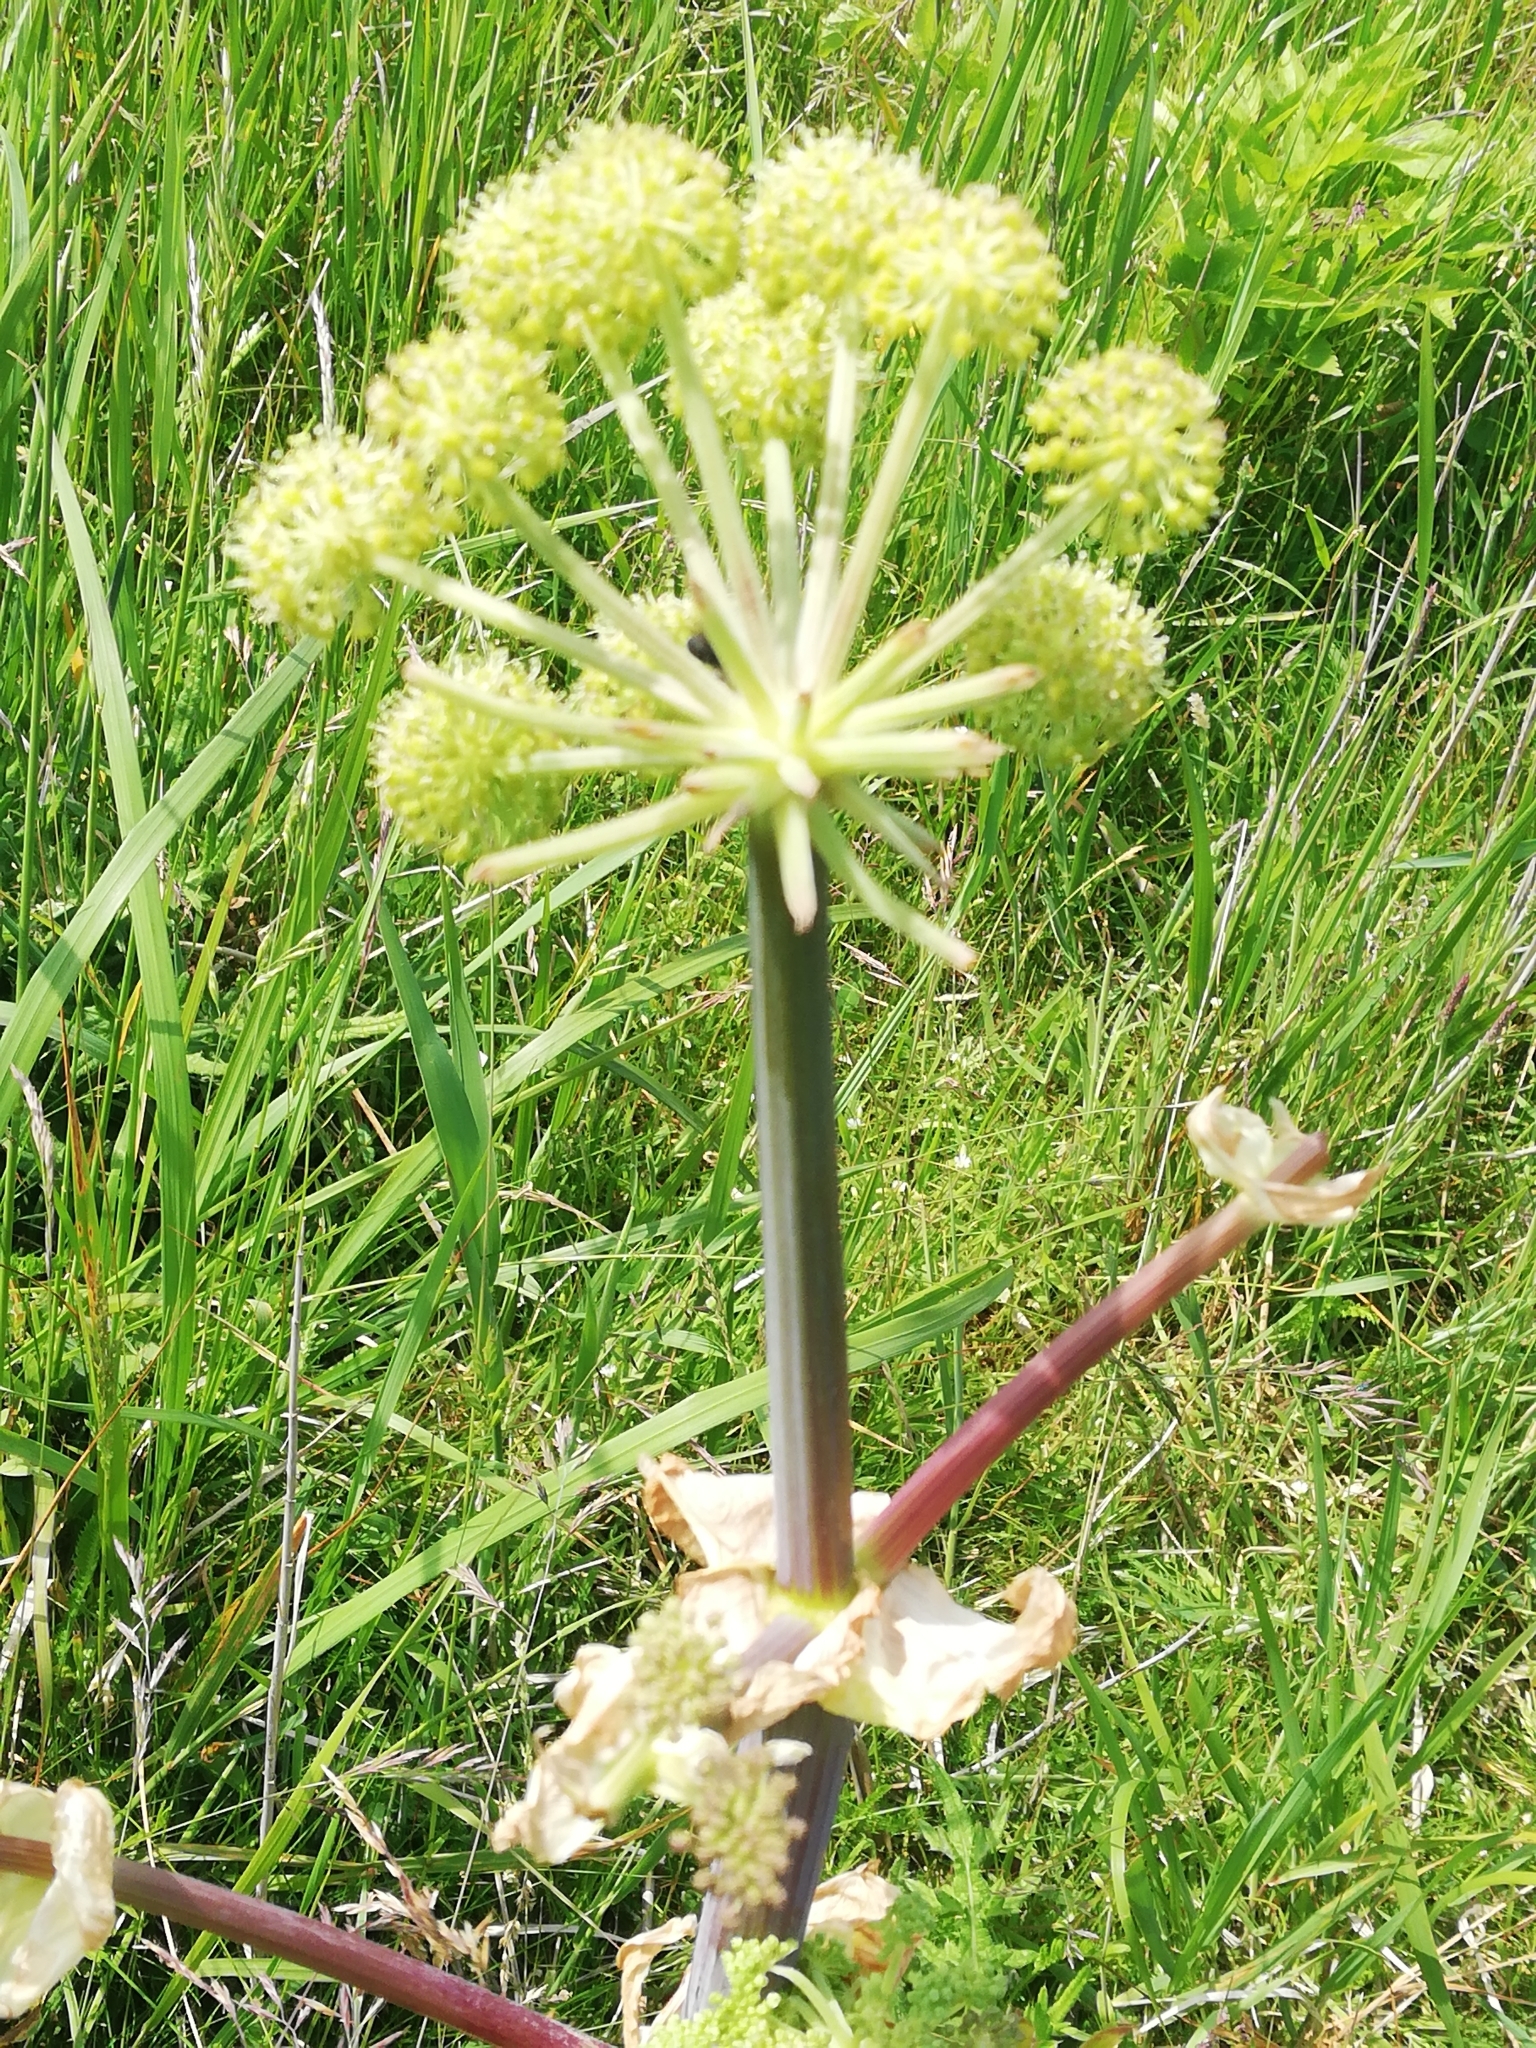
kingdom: Plantae
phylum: Tracheophyta
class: Magnoliopsida
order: Apiales
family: Apiaceae
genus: Angelica
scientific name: Angelica archangelica
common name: Garden angelica
